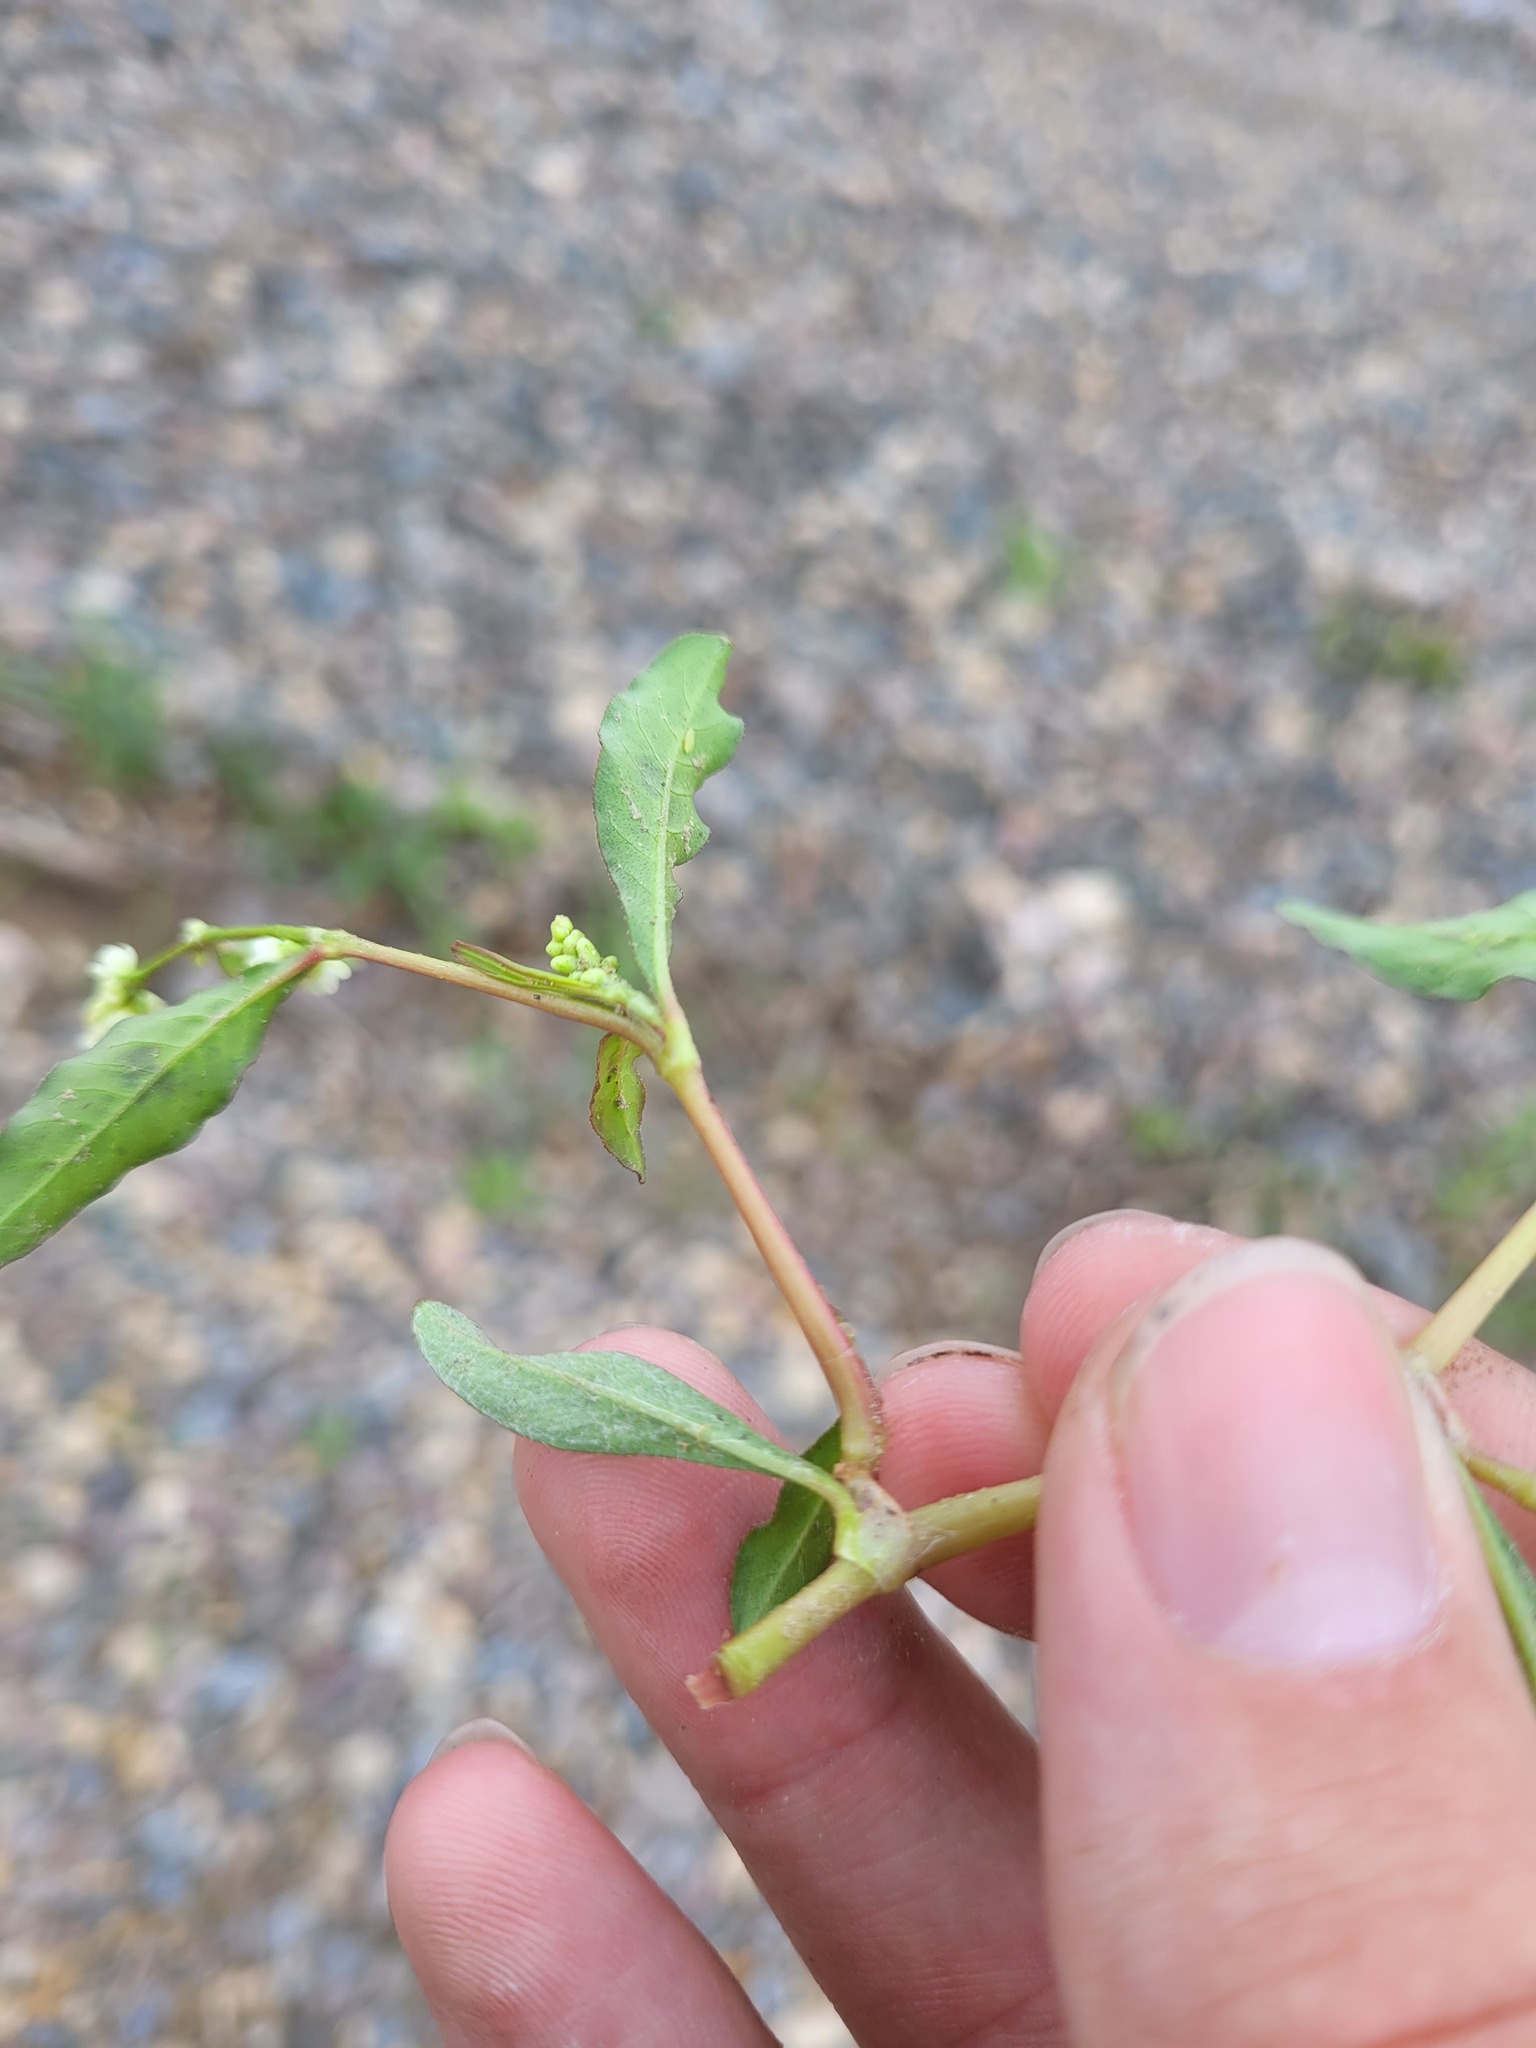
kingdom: Plantae
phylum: Tracheophyta
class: Magnoliopsida
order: Caryophyllales
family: Polygonaceae
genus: Persicaria
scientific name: Persicaria maculosa
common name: Redshank
